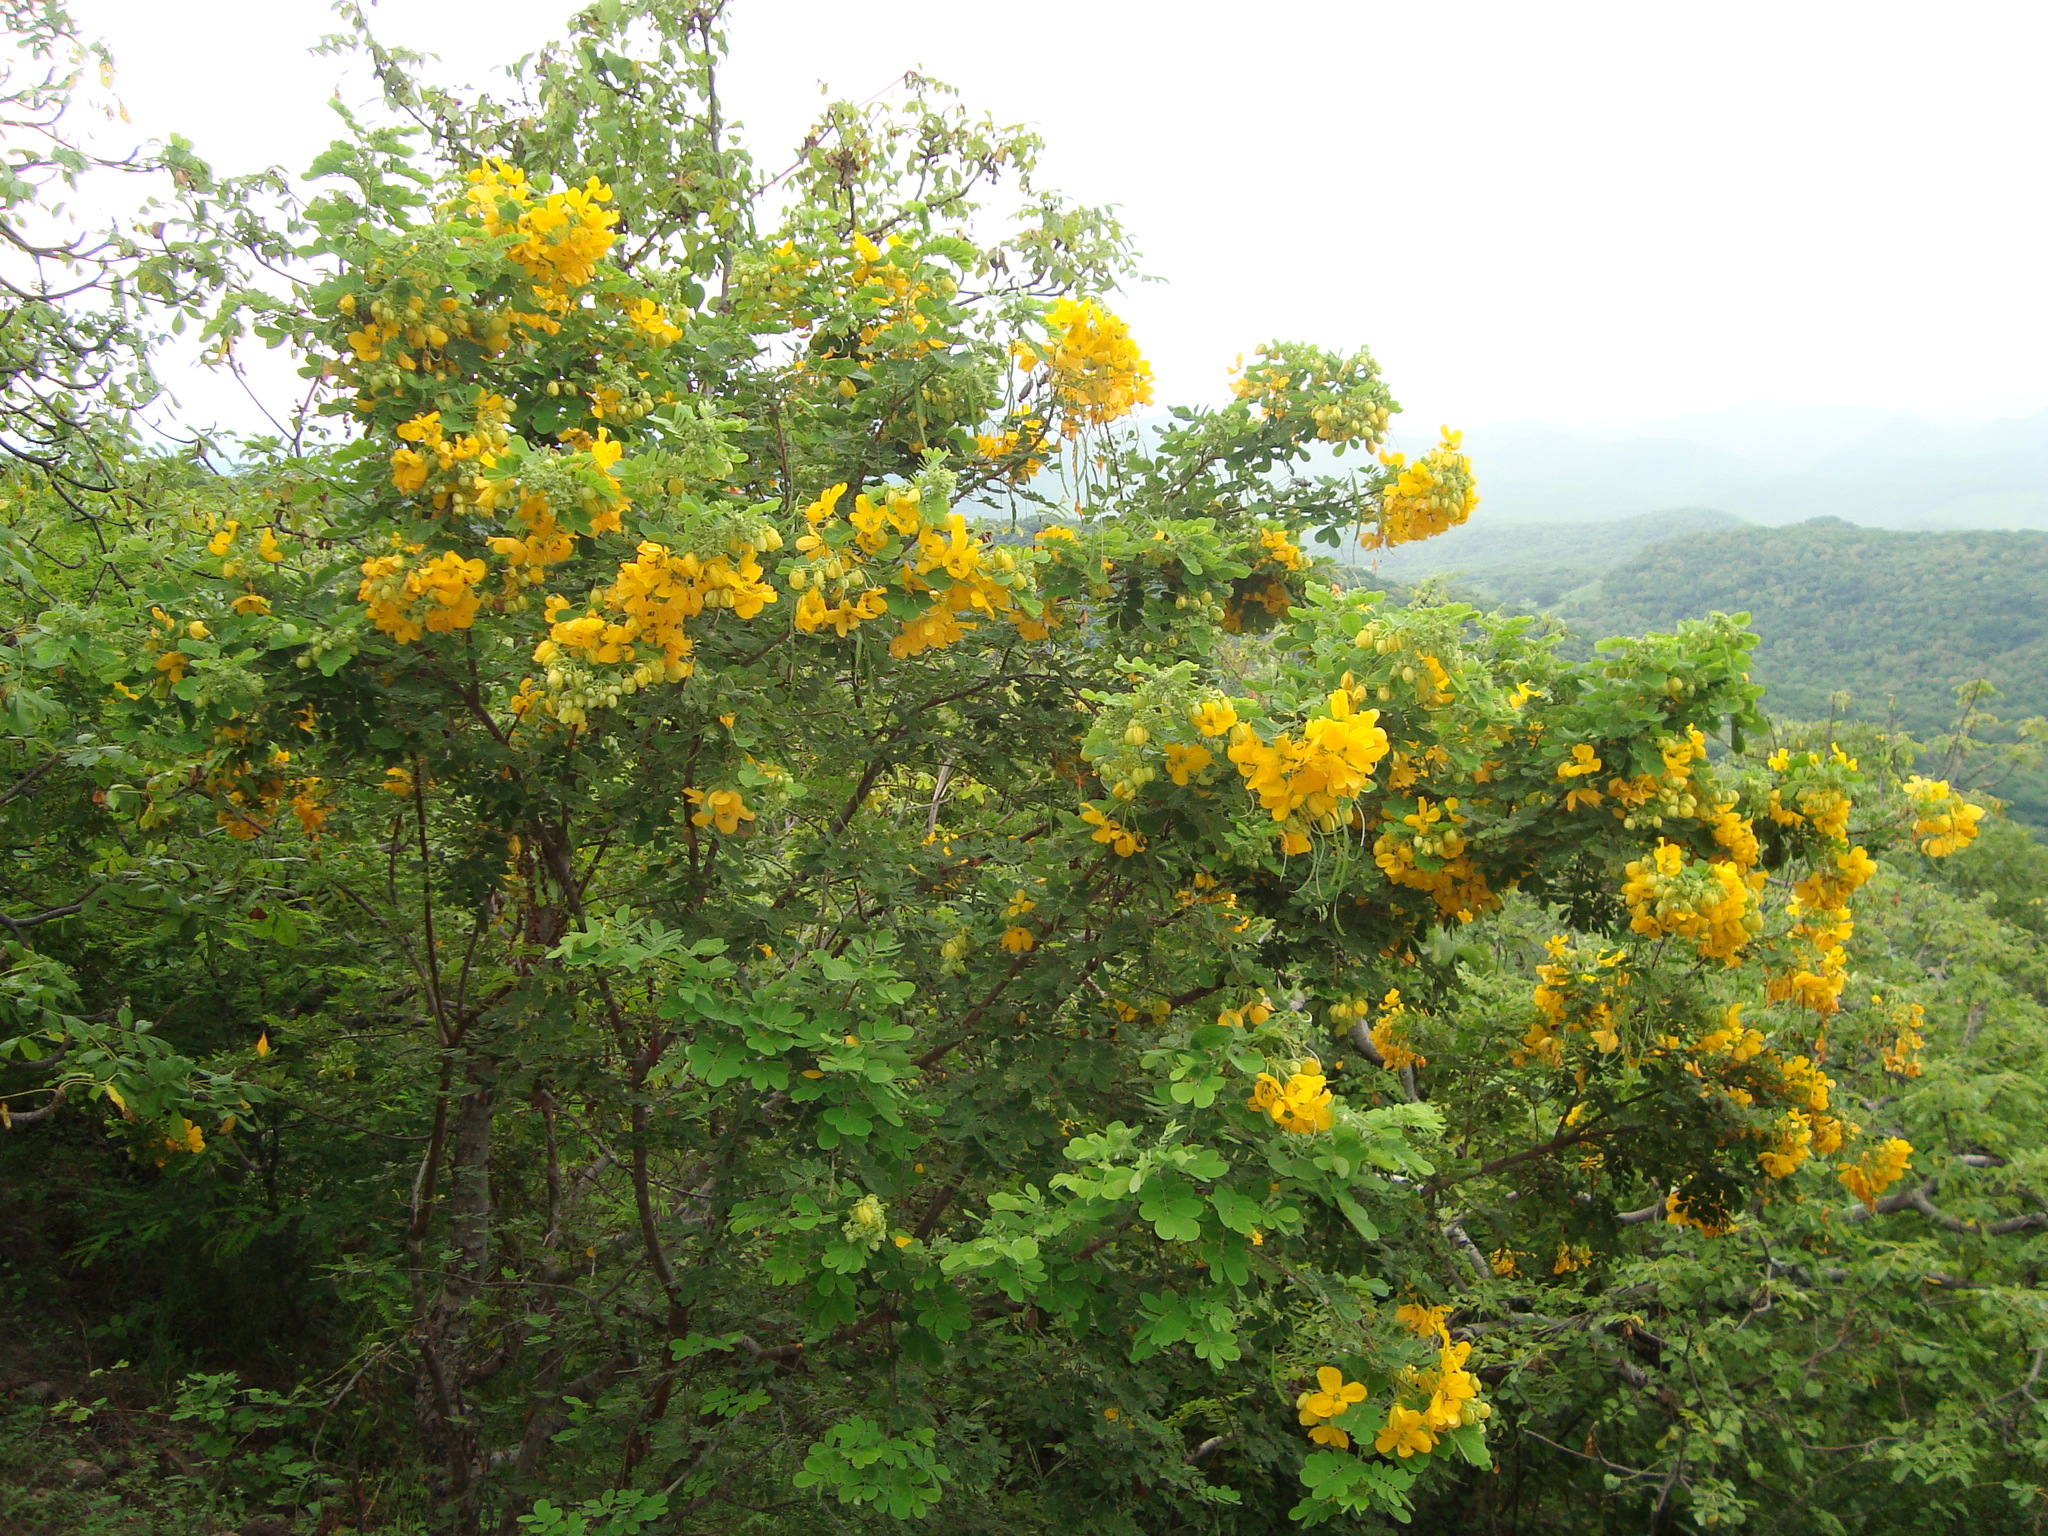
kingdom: Plantae
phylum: Tracheophyta
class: Magnoliopsida
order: Fabales
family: Fabaceae
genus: Senna
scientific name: Senna skinneri
